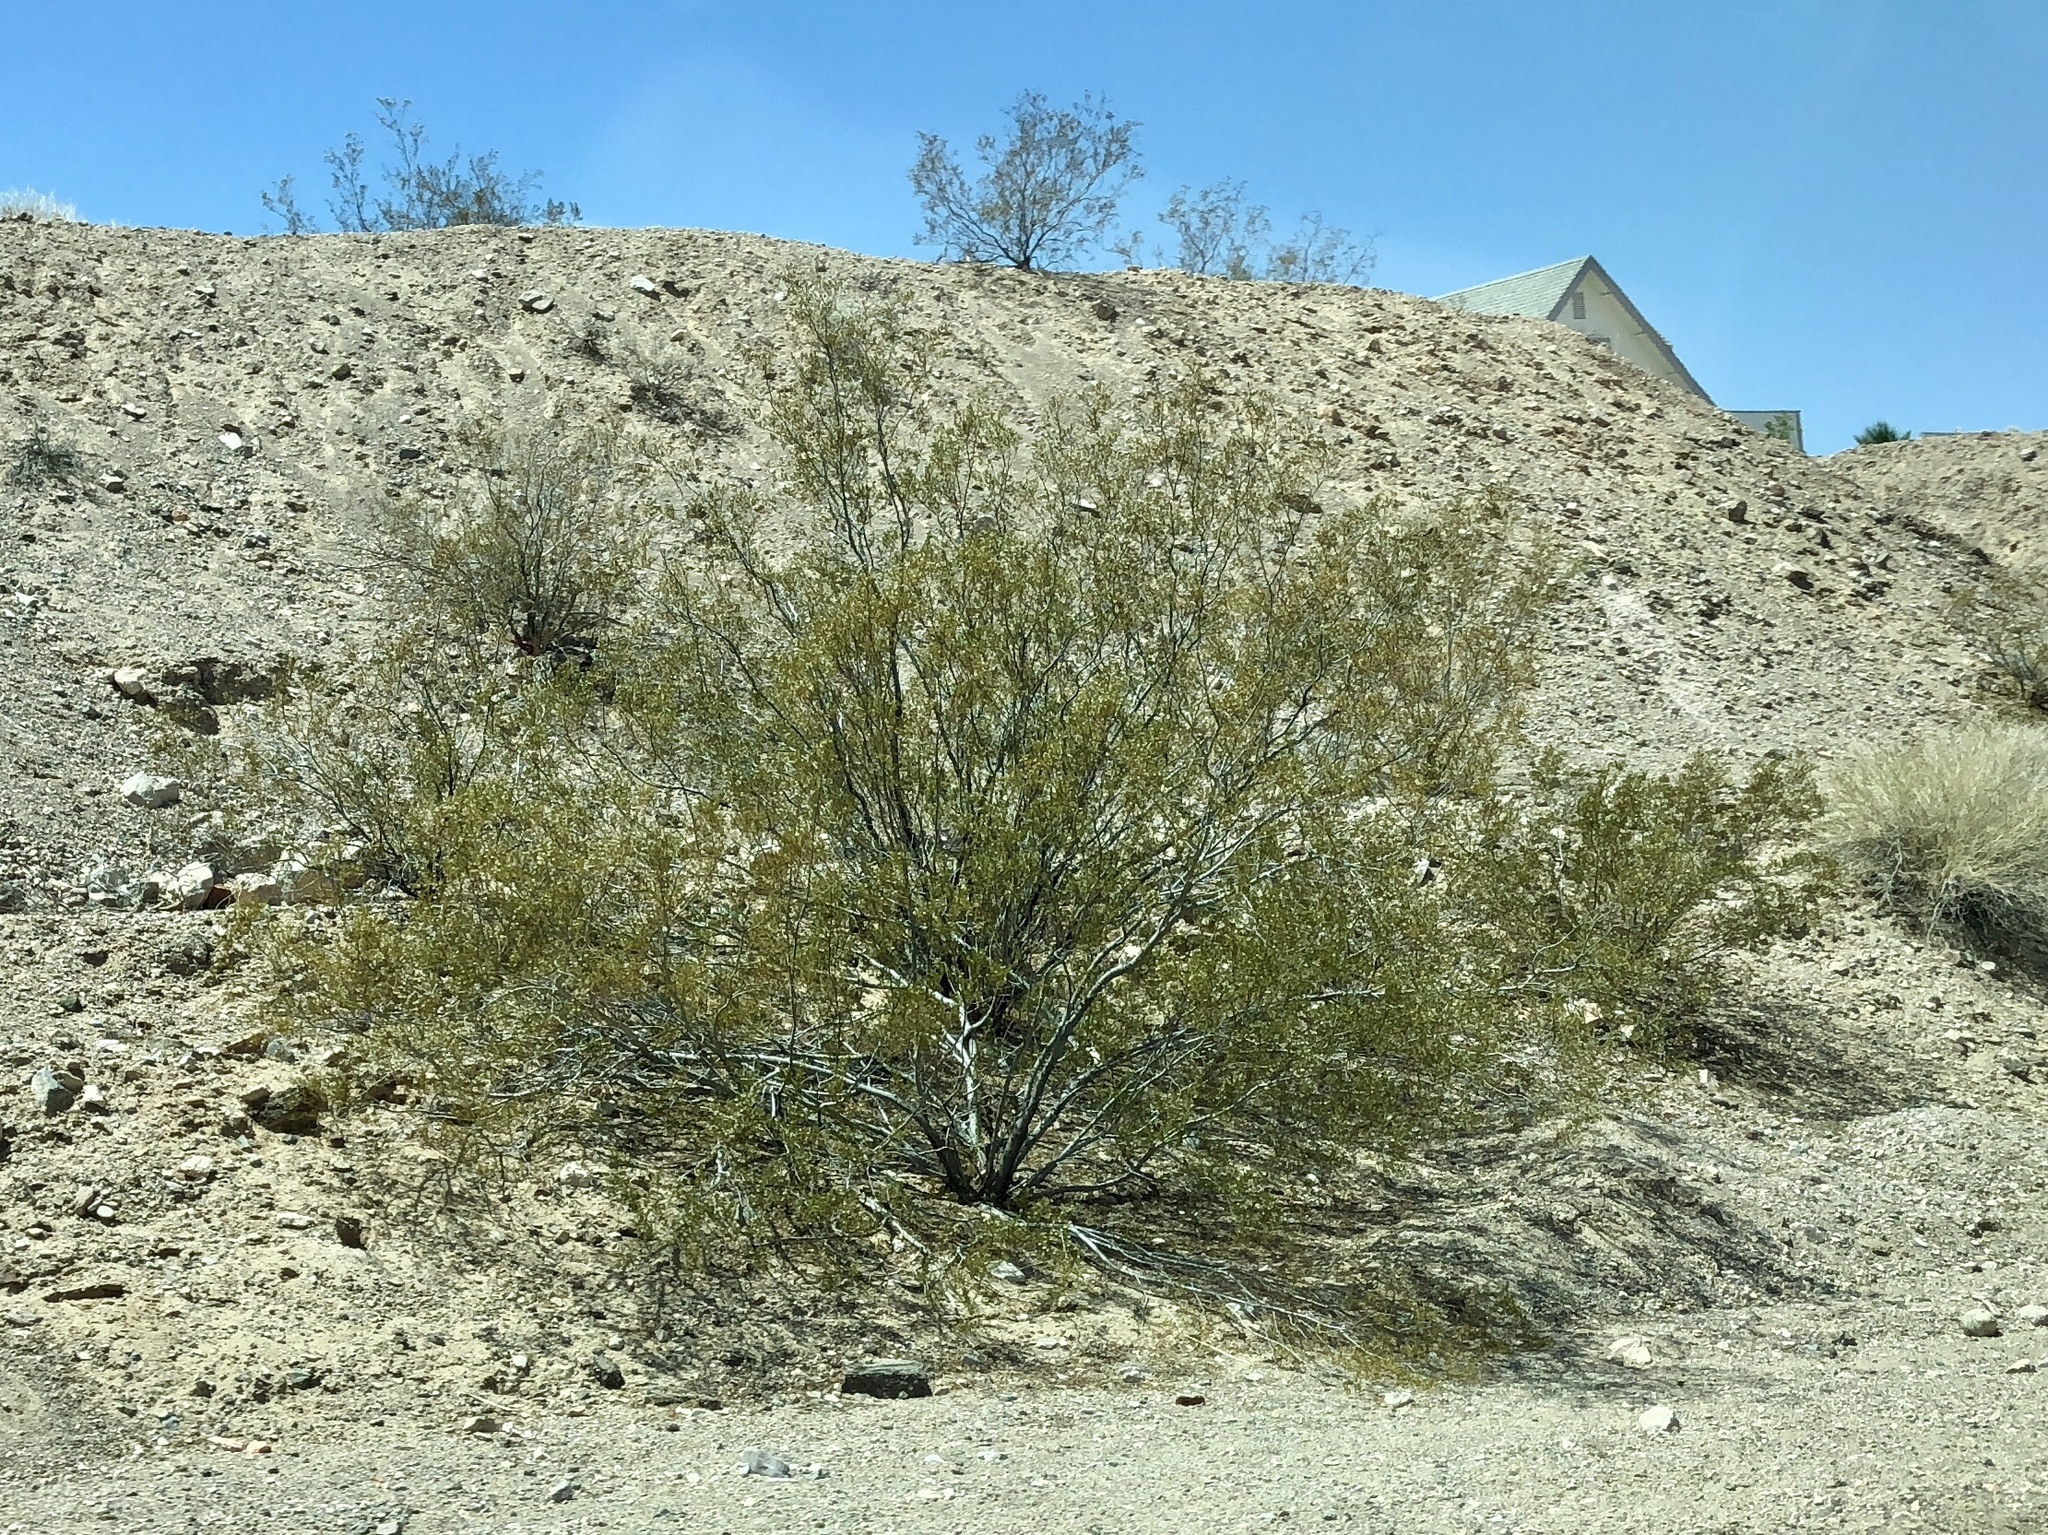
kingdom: Plantae
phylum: Tracheophyta
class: Magnoliopsida
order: Zygophyllales
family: Zygophyllaceae
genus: Larrea
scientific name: Larrea tridentata
